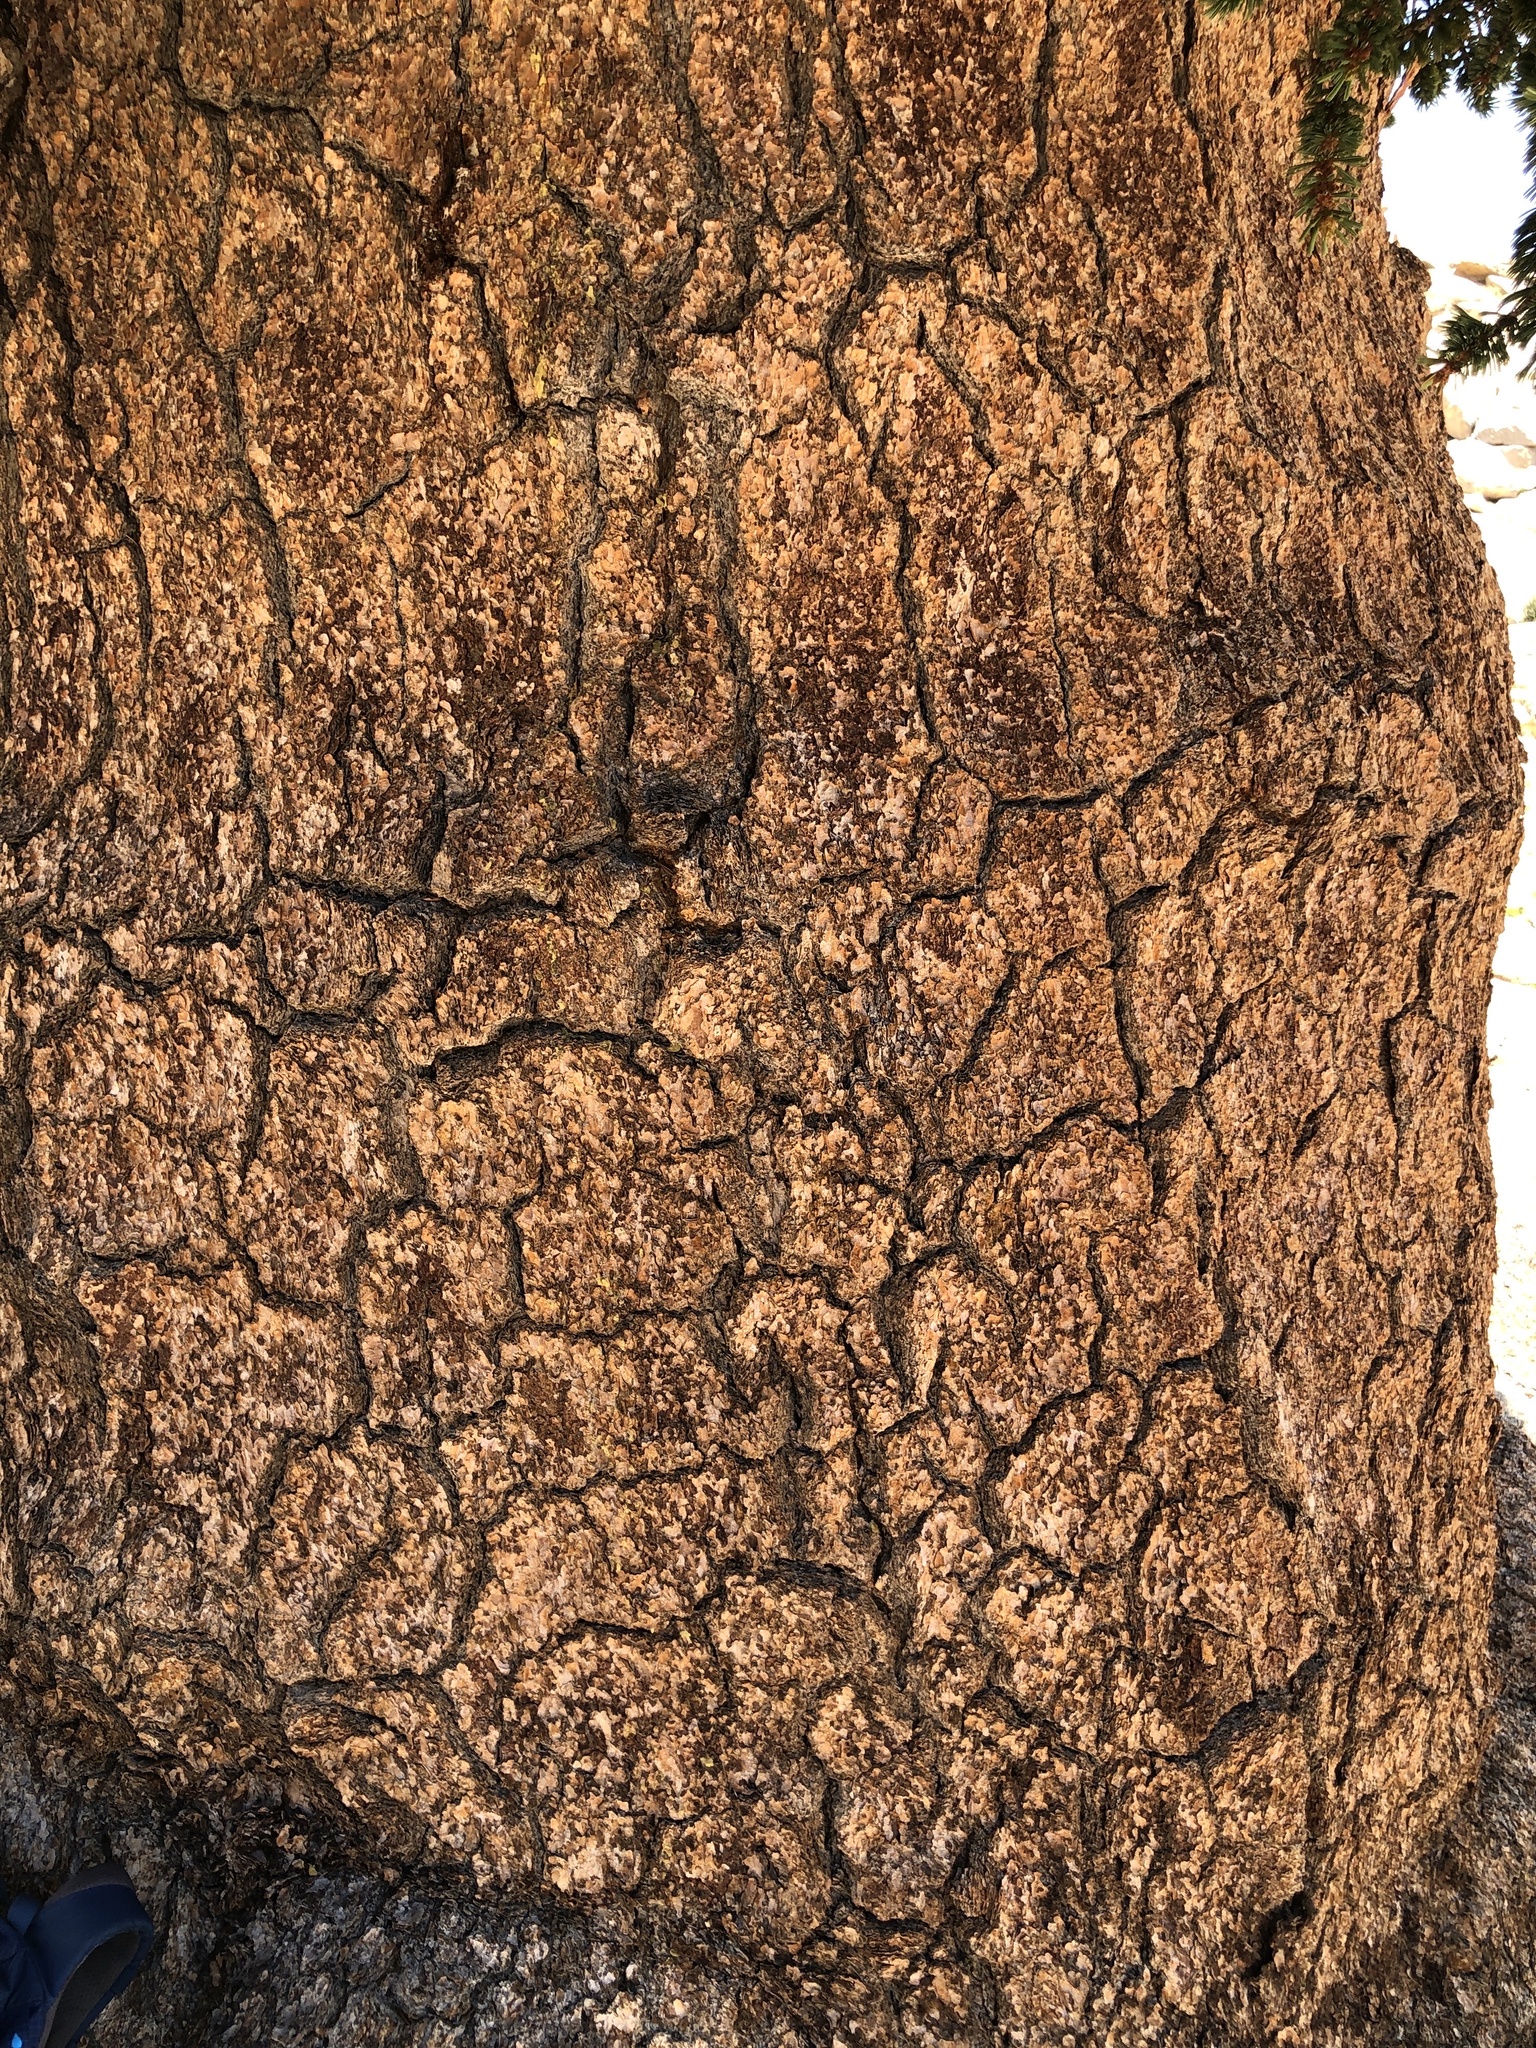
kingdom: Plantae
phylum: Tracheophyta
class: Pinopsida
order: Pinales
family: Pinaceae
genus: Pinus
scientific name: Pinus balfouriana
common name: Foxtail pine
